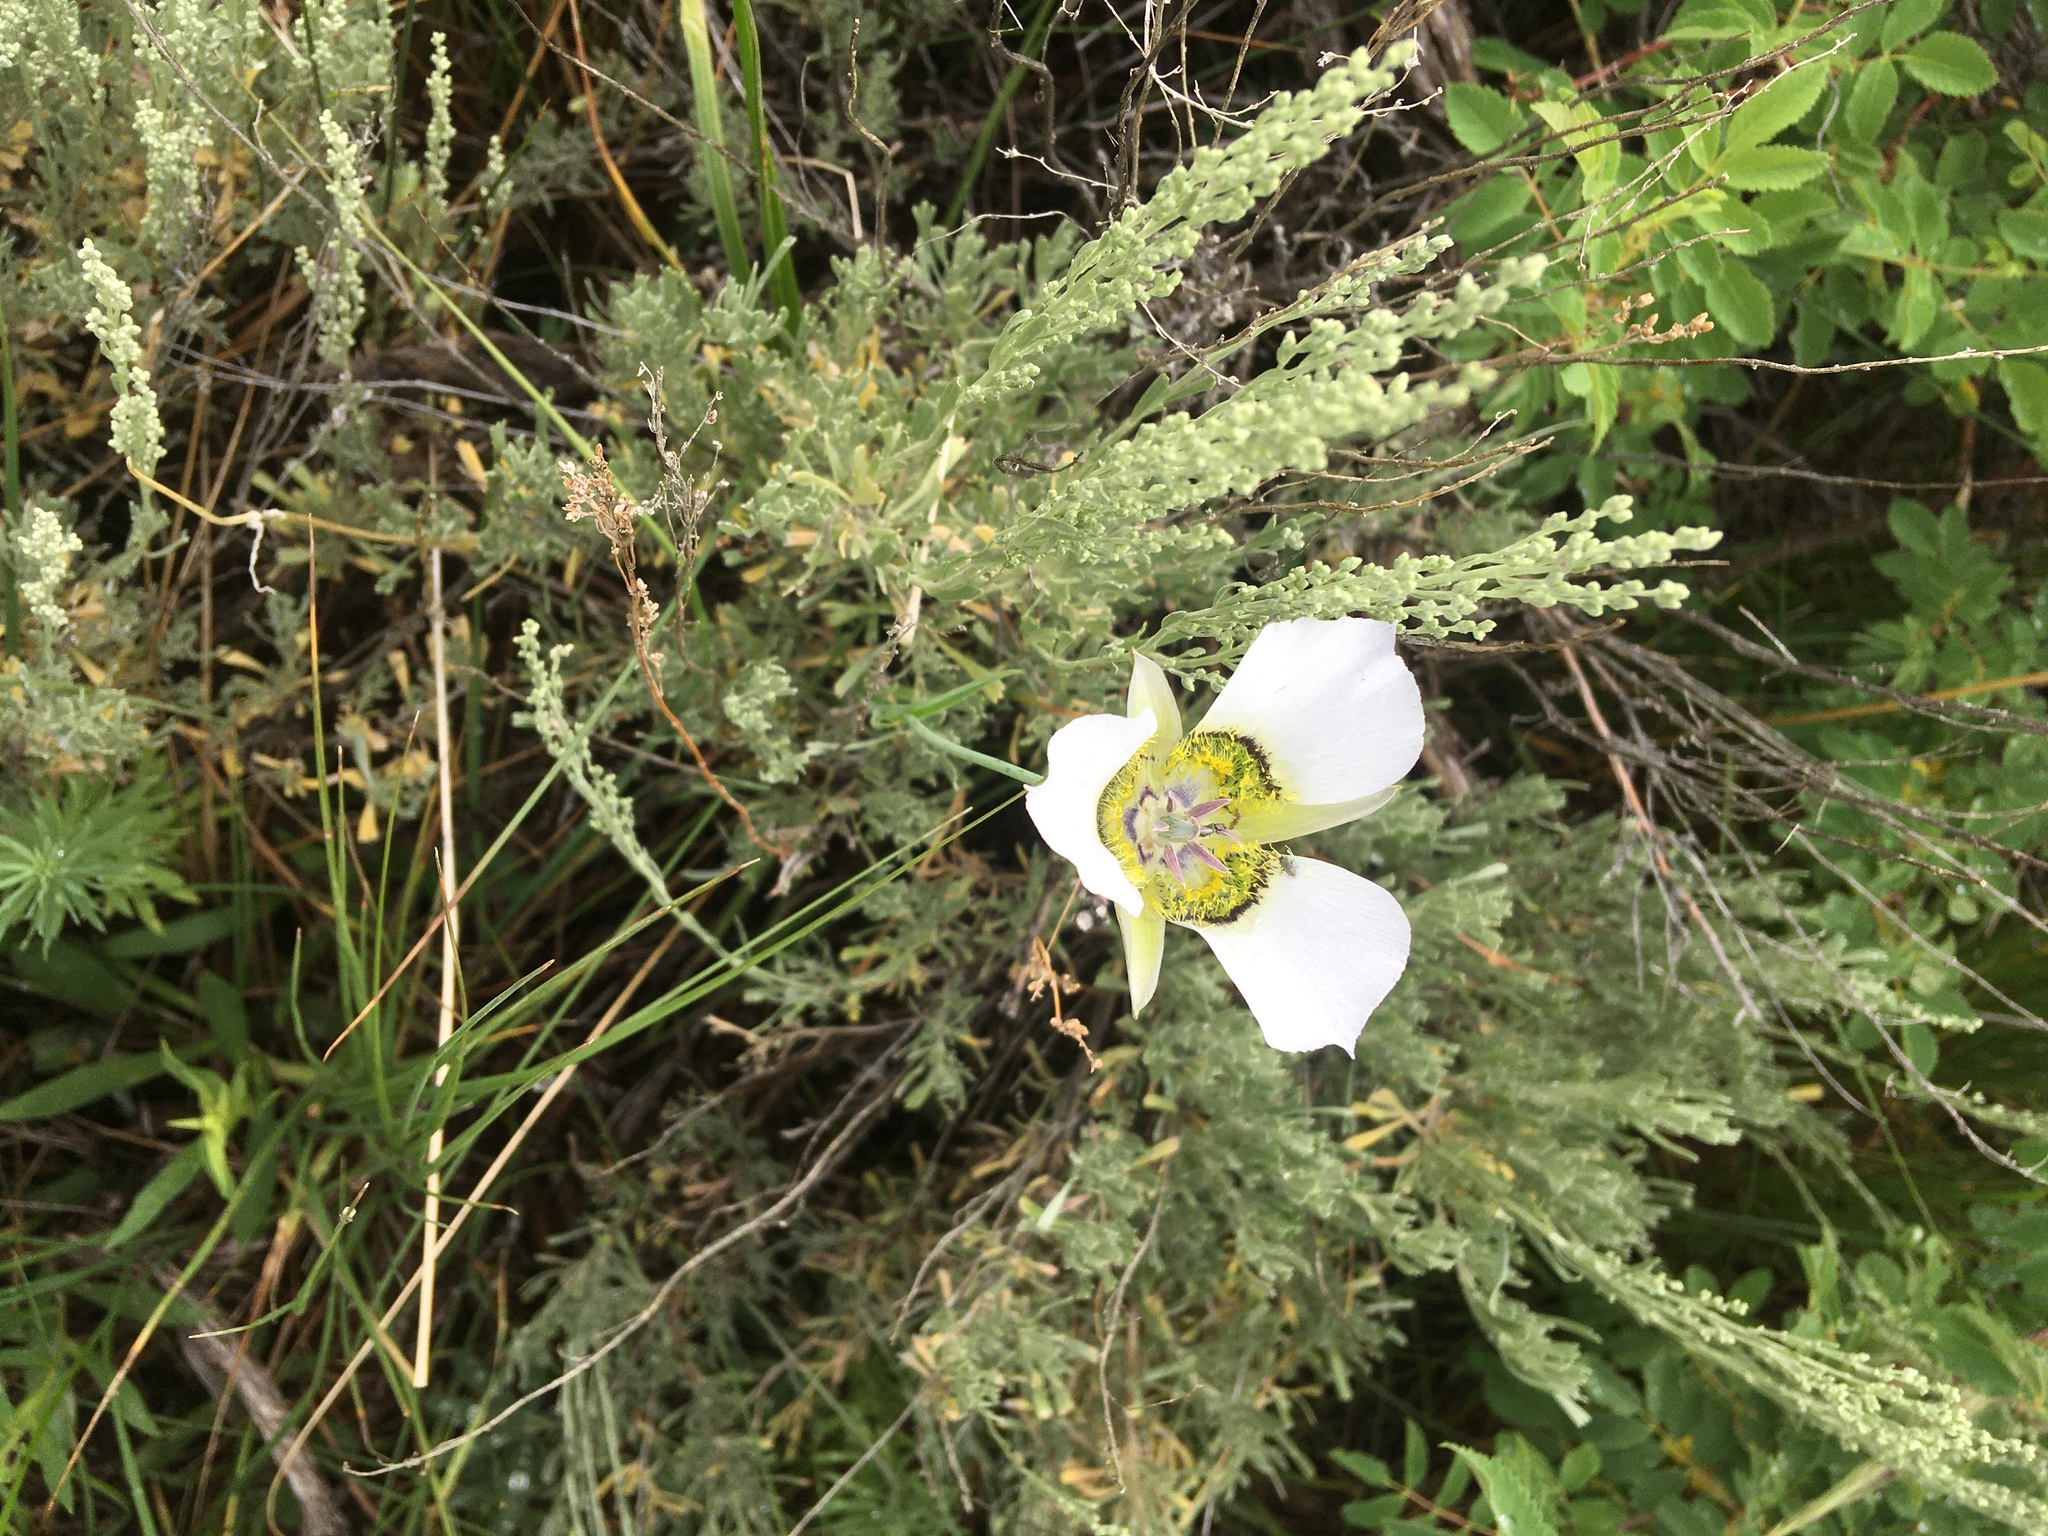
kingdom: Plantae
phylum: Tracheophyta
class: Liliopsida
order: Liliales
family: Liliaceae
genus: Calochortus
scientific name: Calochortus gunnisonii
